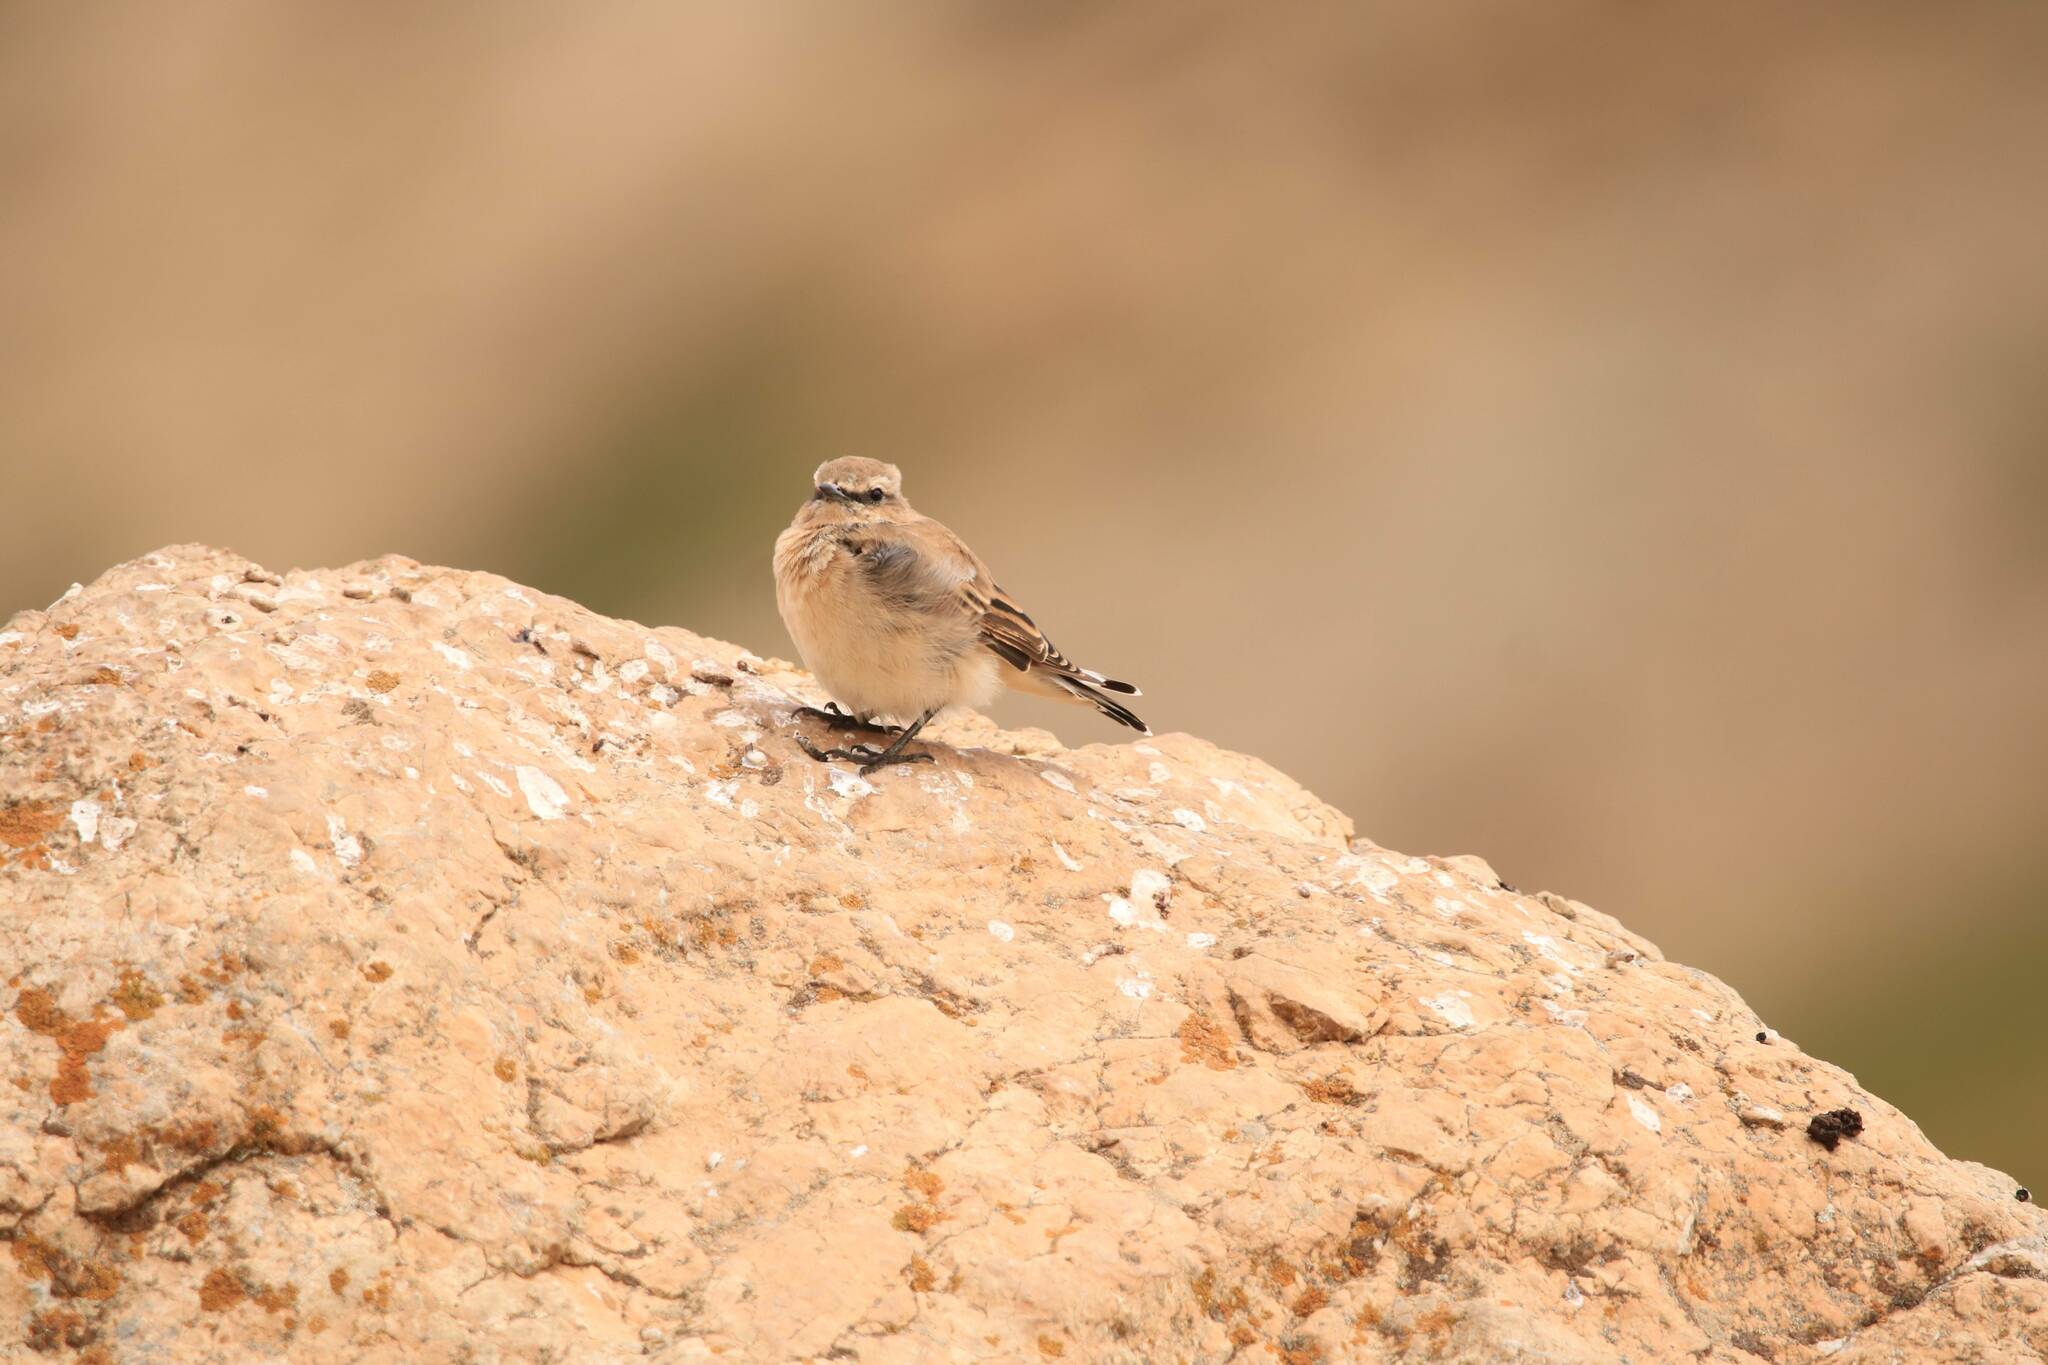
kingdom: Animalia
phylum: Chordata
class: Aves
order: Passeriformes
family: Muscicapidae
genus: Oenanthe
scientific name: Oenanthe oenanthe
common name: Northern wheatear
